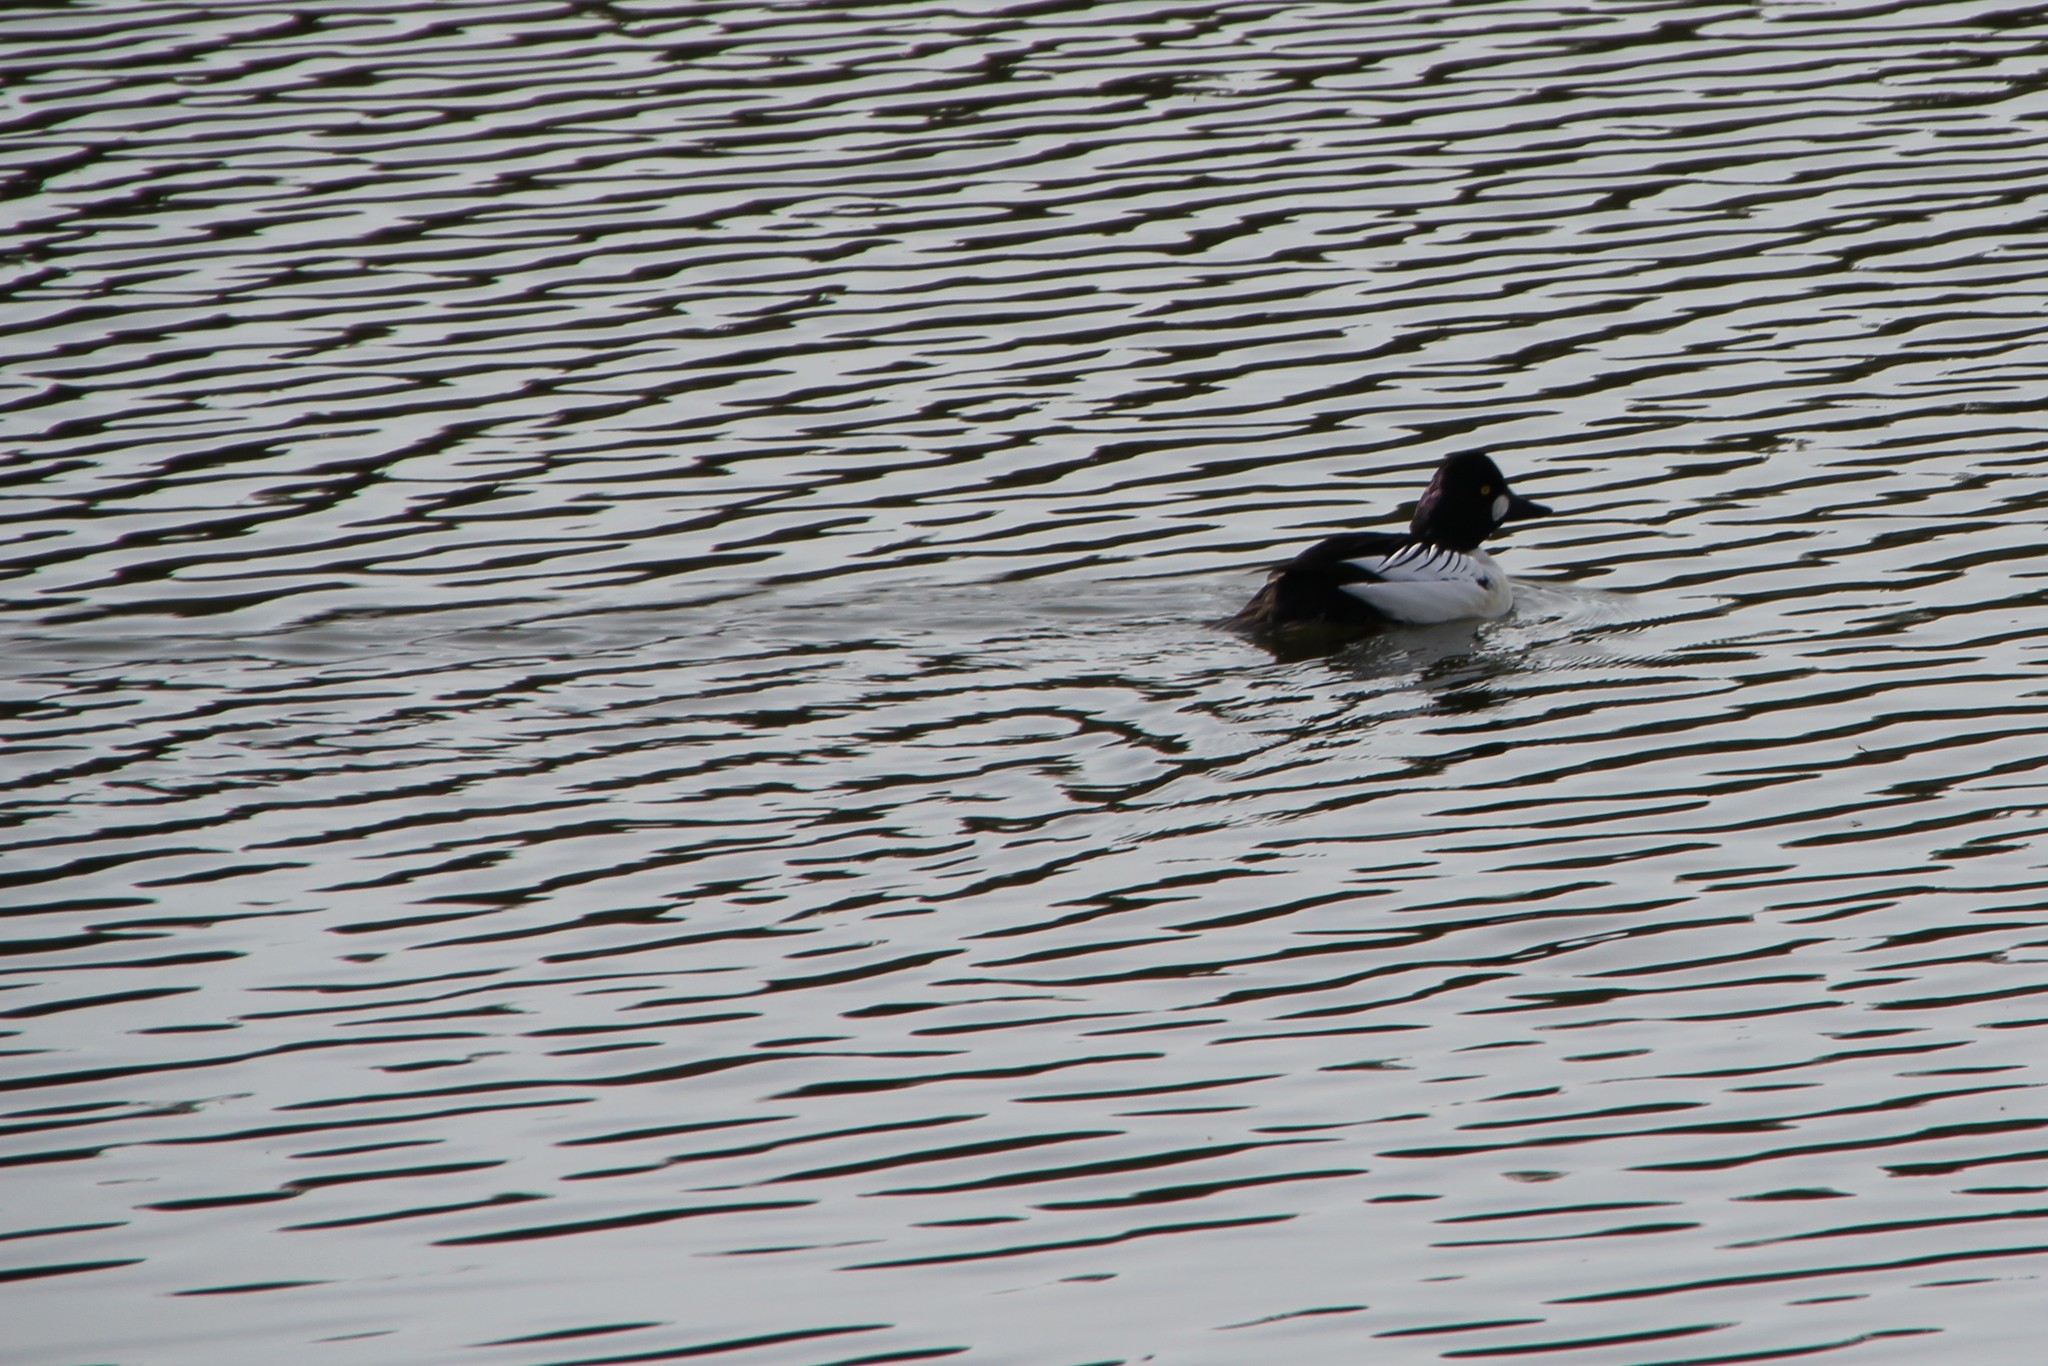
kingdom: Animalia
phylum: Chordata
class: Aves
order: Anseriformes
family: Anatidae
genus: Bucephala
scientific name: Bucephala clangula
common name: Common goldeneye
